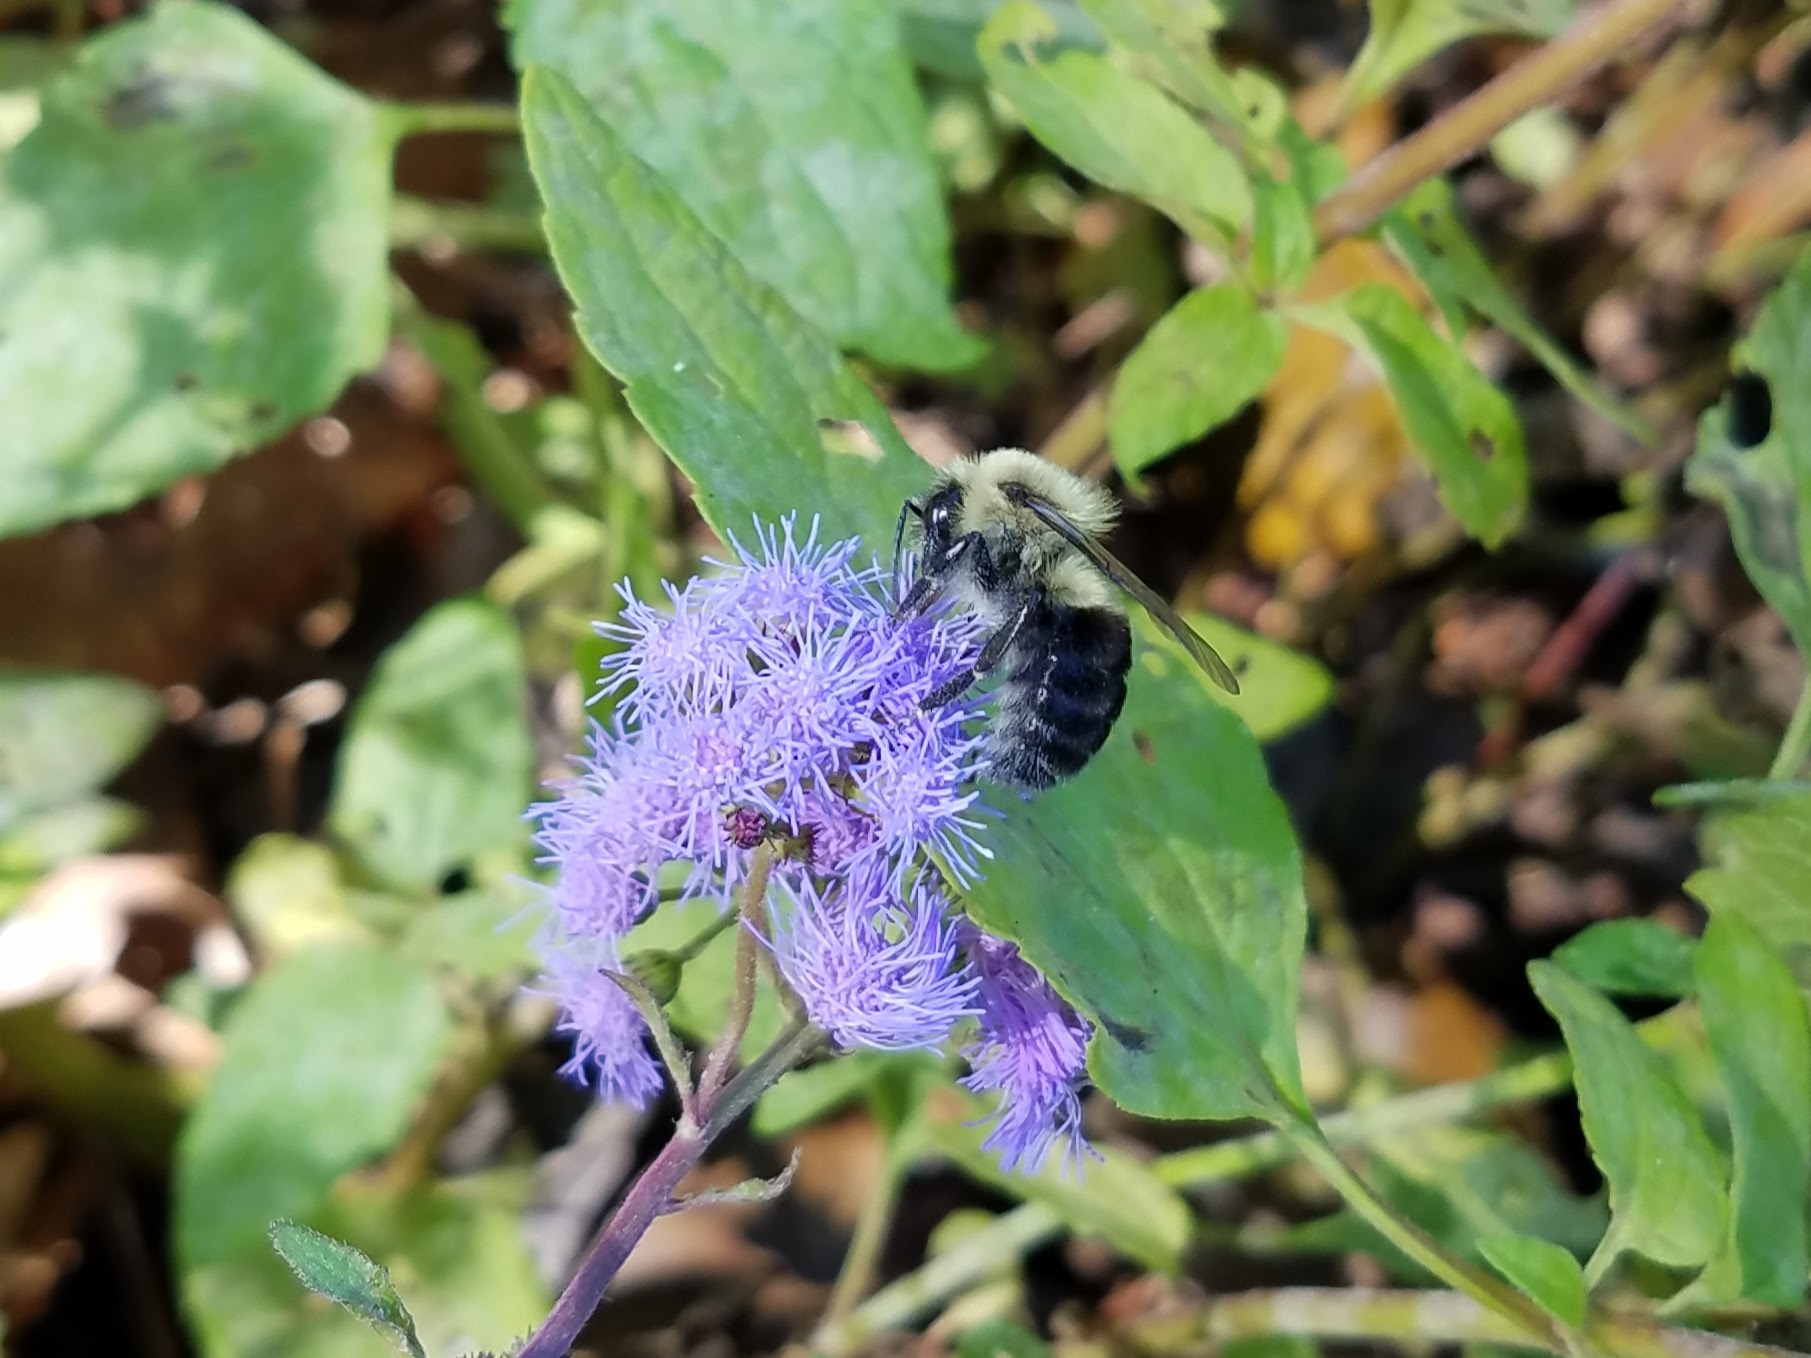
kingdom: Animalia
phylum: Arthropoda
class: Insecta
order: Hymenoptera
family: Apidae
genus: Bombus
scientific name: Bombus impatiens
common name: Common eastern bumble bee
